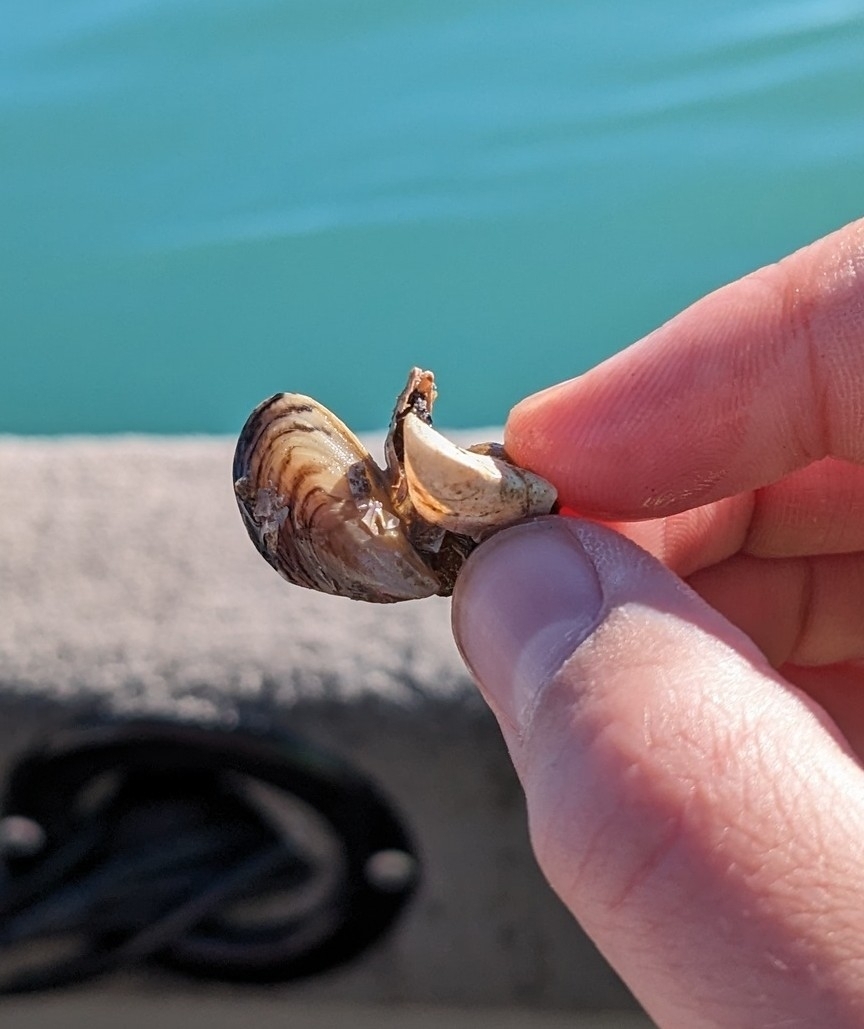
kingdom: Animalia
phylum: Mollusca
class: Bivalvia
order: Myida
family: Dreissenidae
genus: Dreissena
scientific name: Dreissena polymorpha
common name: Zebra mussel
